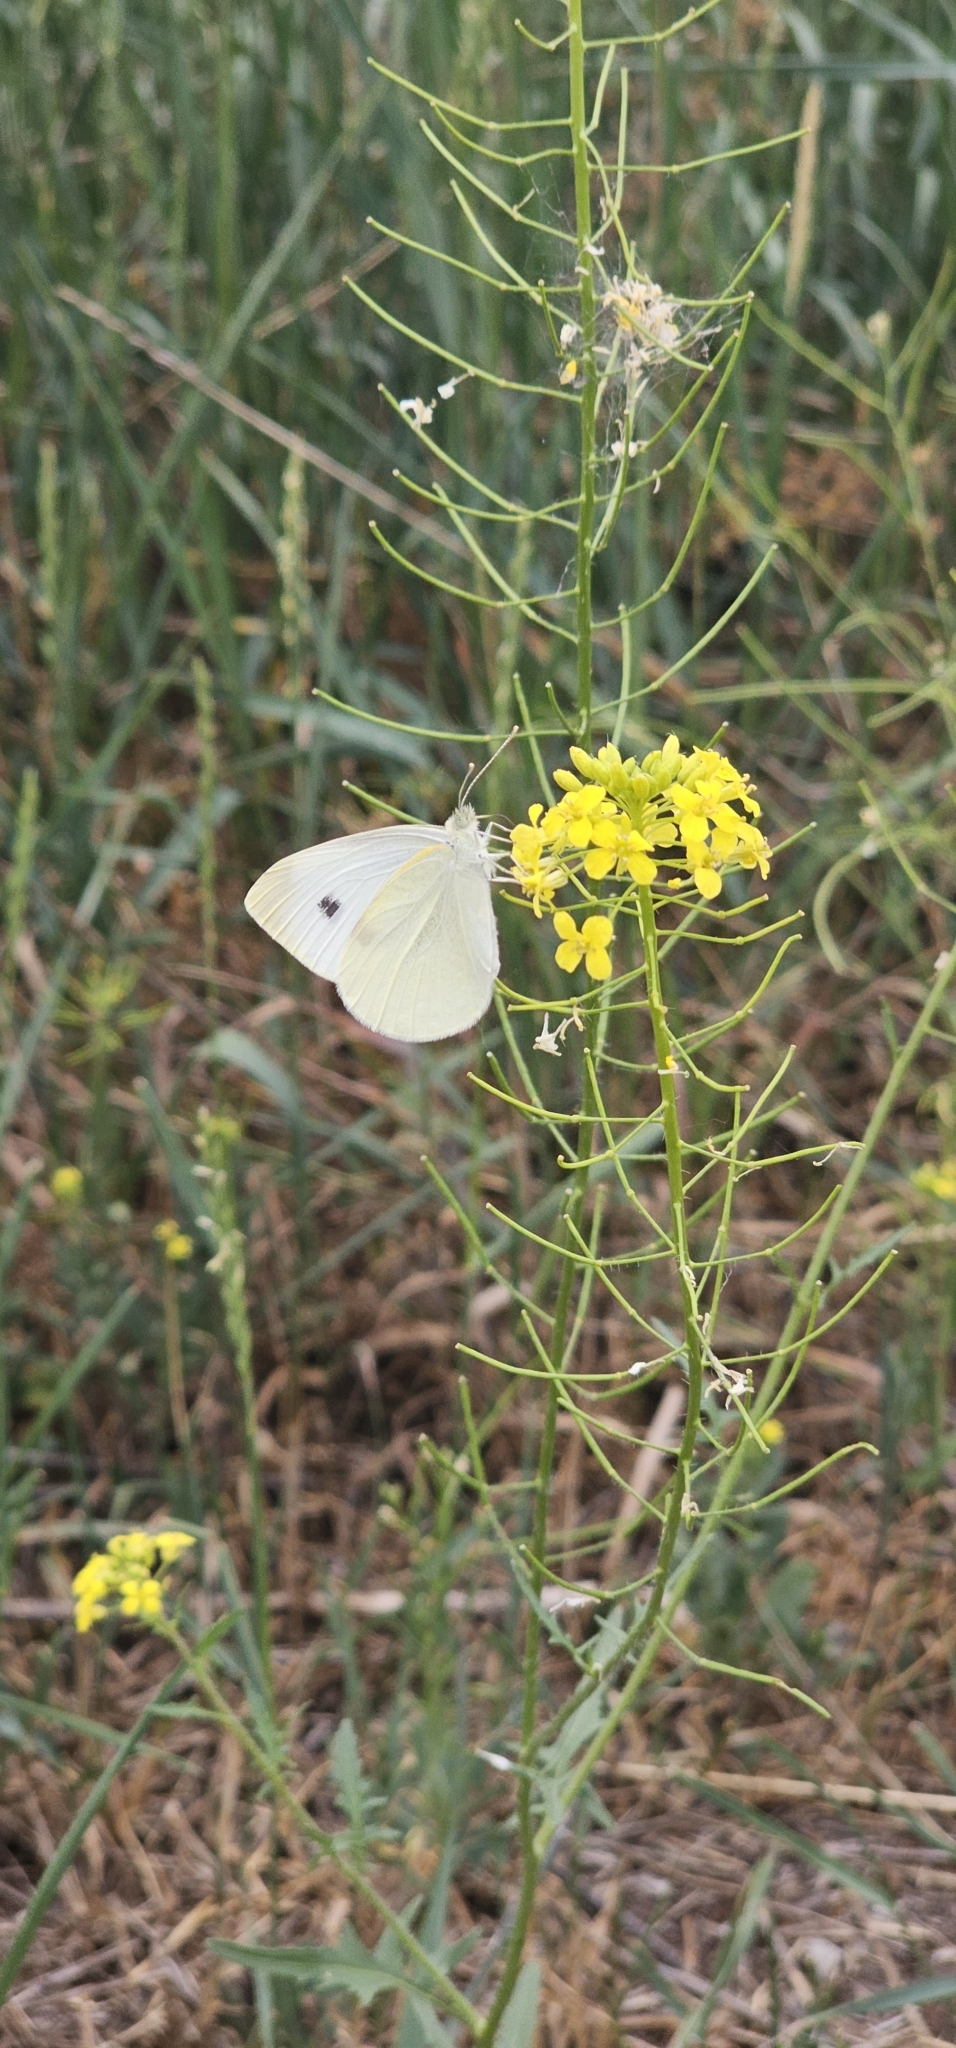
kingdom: Animalia
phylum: Arthropoda
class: Insecta
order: Lepidoptera
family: Pieridae
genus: Pieris
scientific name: Pieris rapae
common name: Small white
